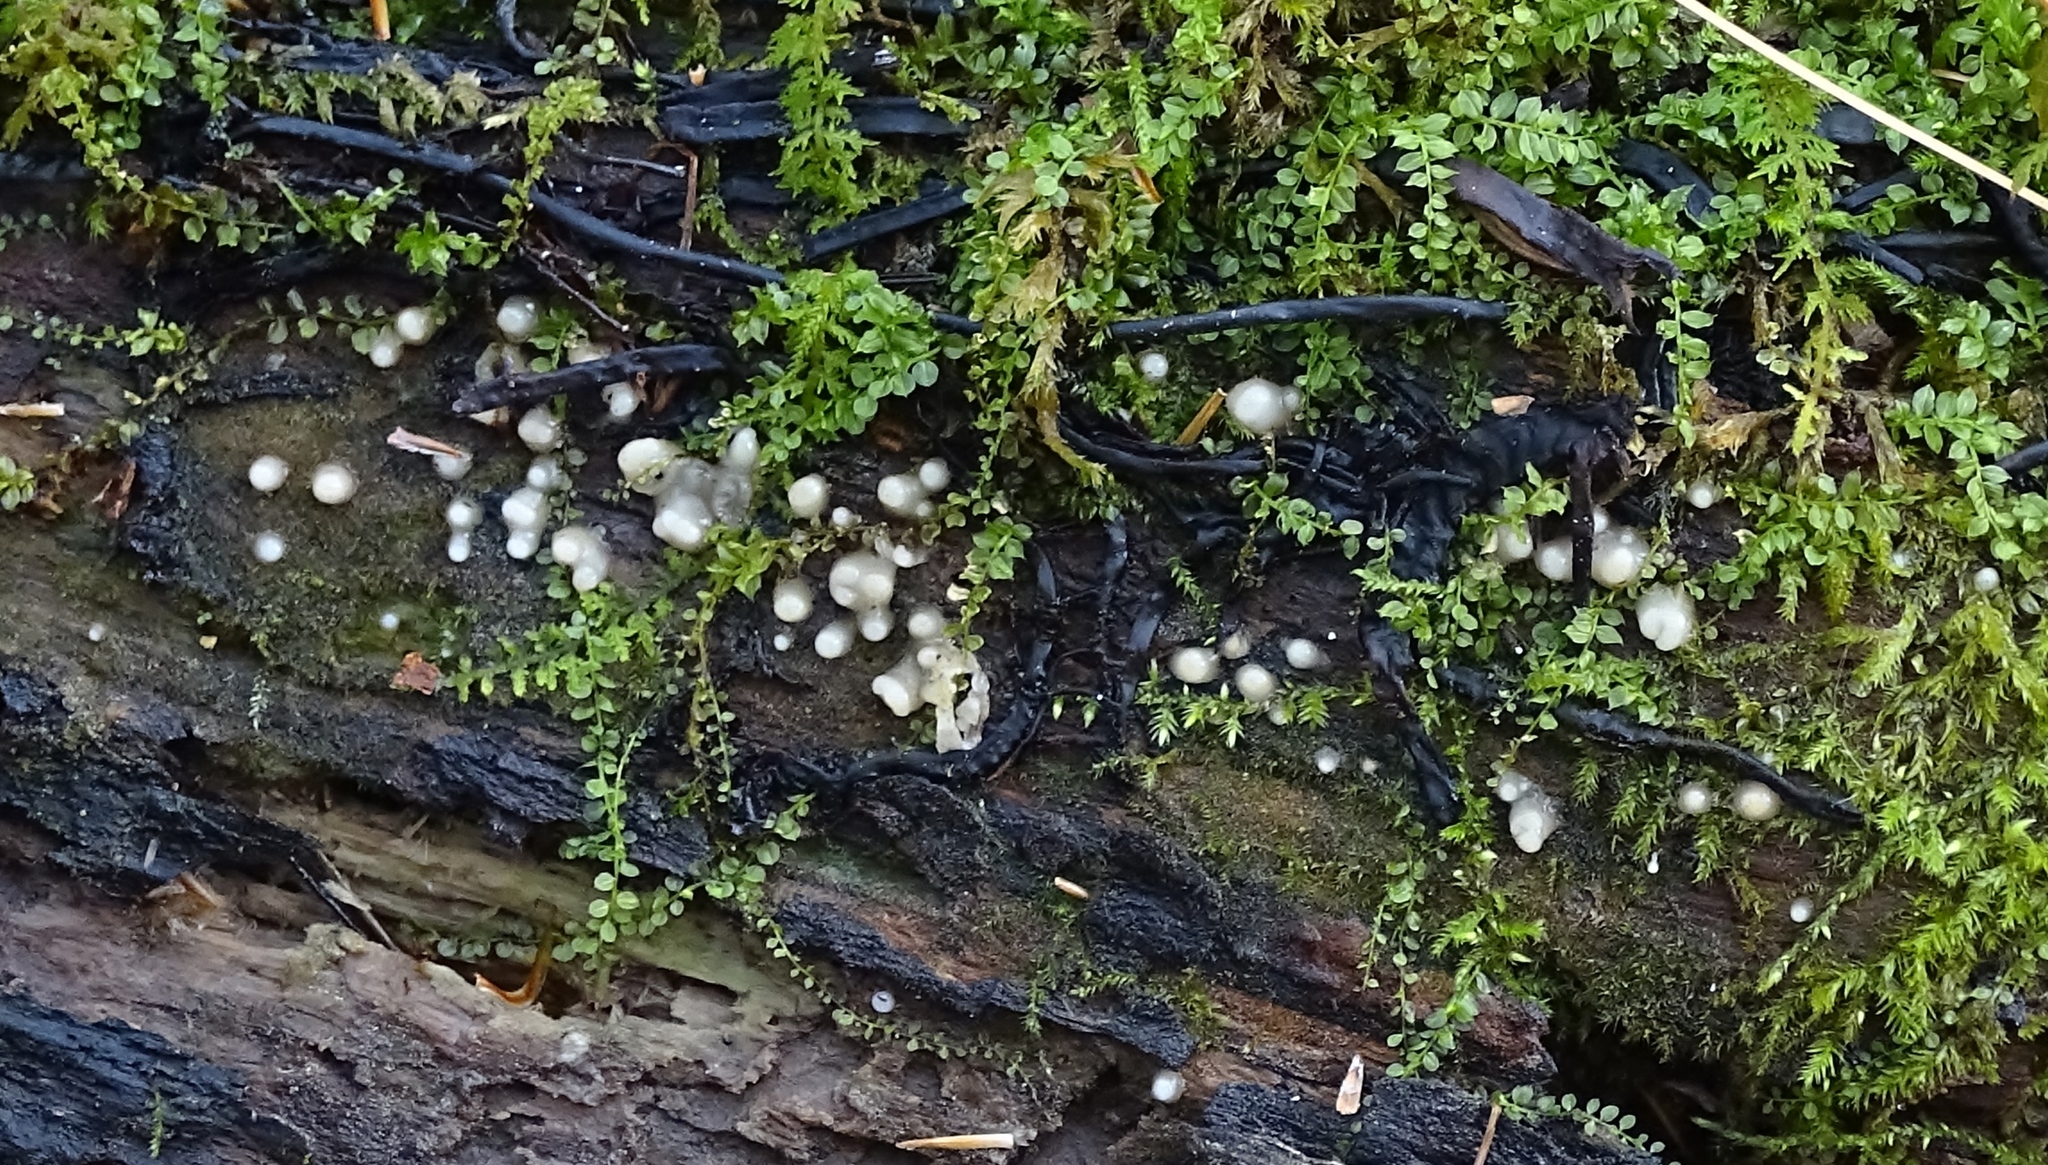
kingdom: Fungi
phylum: Basidiomycota
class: Atractiellomycetes
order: Atractiellales
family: Phleogenaceae
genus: Helicogloea
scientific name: Helicogloea compressa
